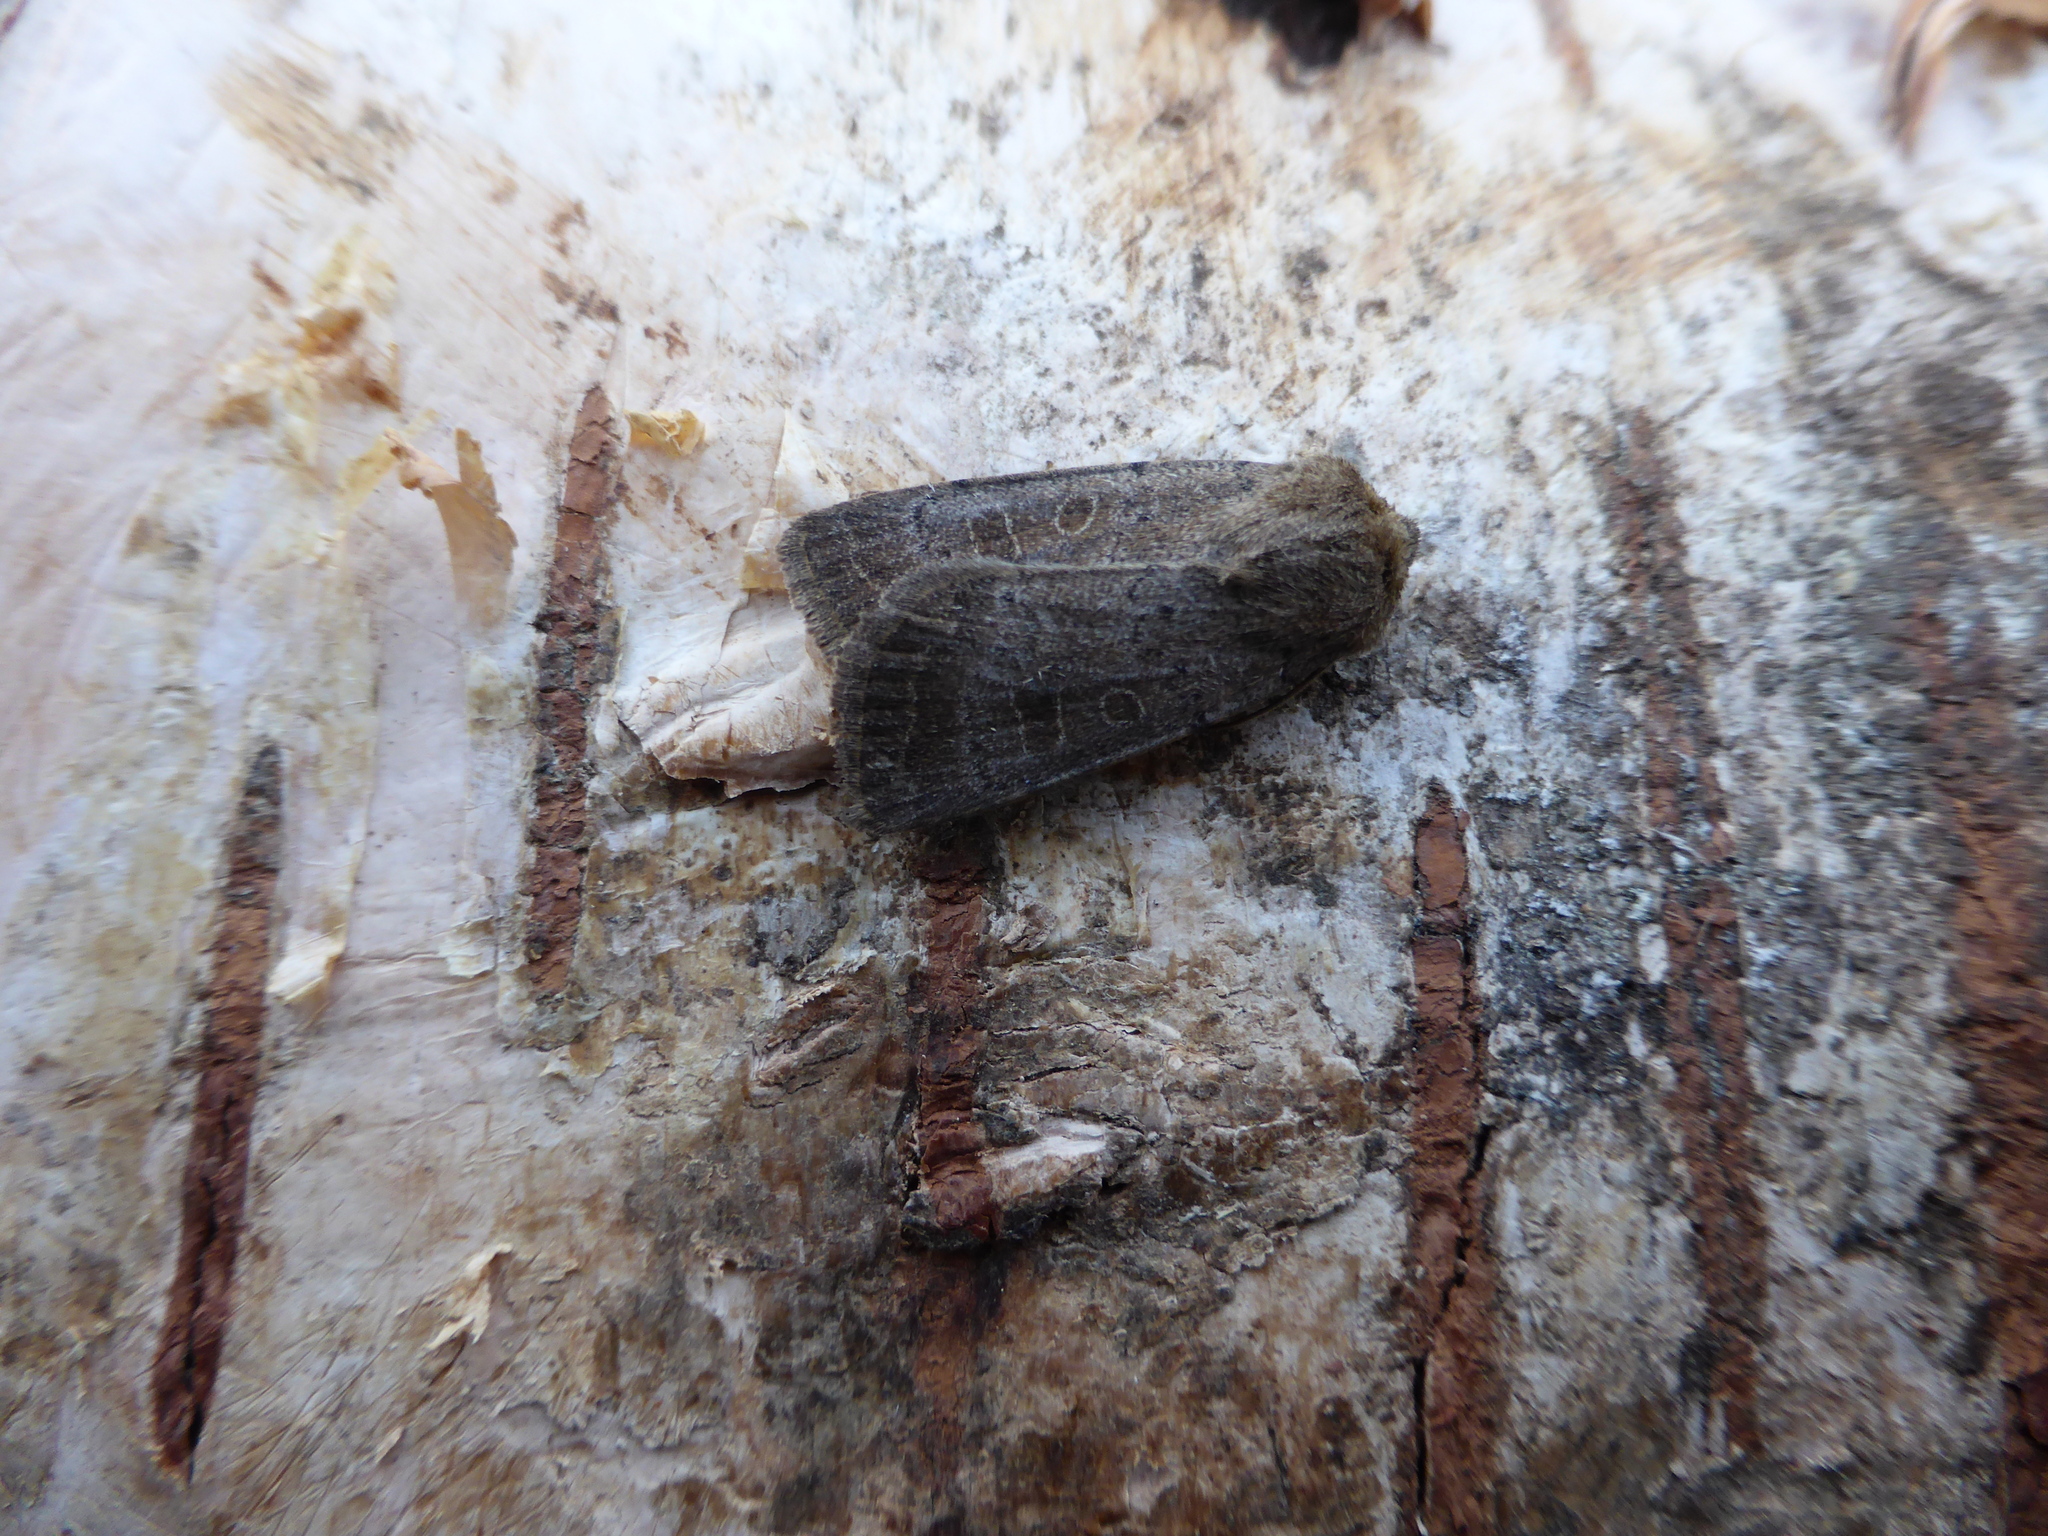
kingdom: Animalia
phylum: Arthropoda
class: Insecta
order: Lepidoptera
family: Noctuidae
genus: Hoplodrina
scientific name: Hoplodrina blanda
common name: Rustic
